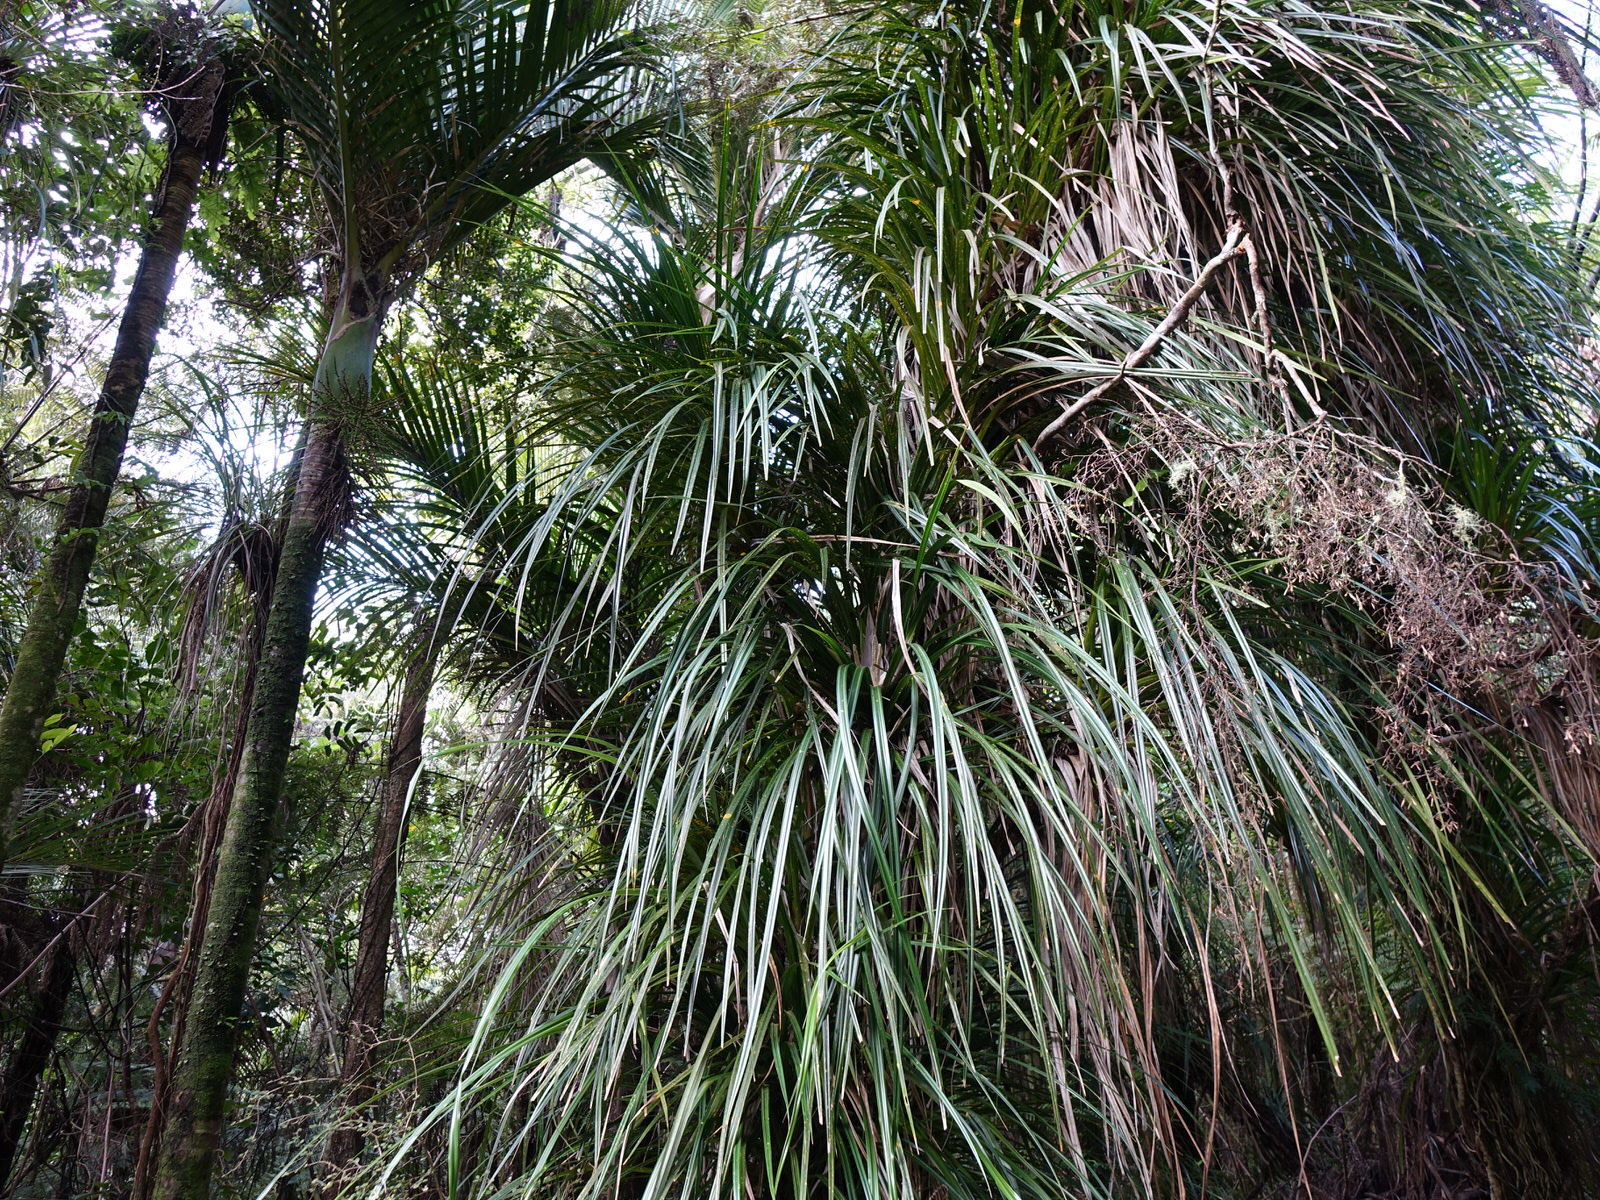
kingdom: Plantae
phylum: Tracheophyta
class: Liliopsida
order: Pandanales
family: Pandanaceae
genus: Freycinetia
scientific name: Freycinetia banksii
